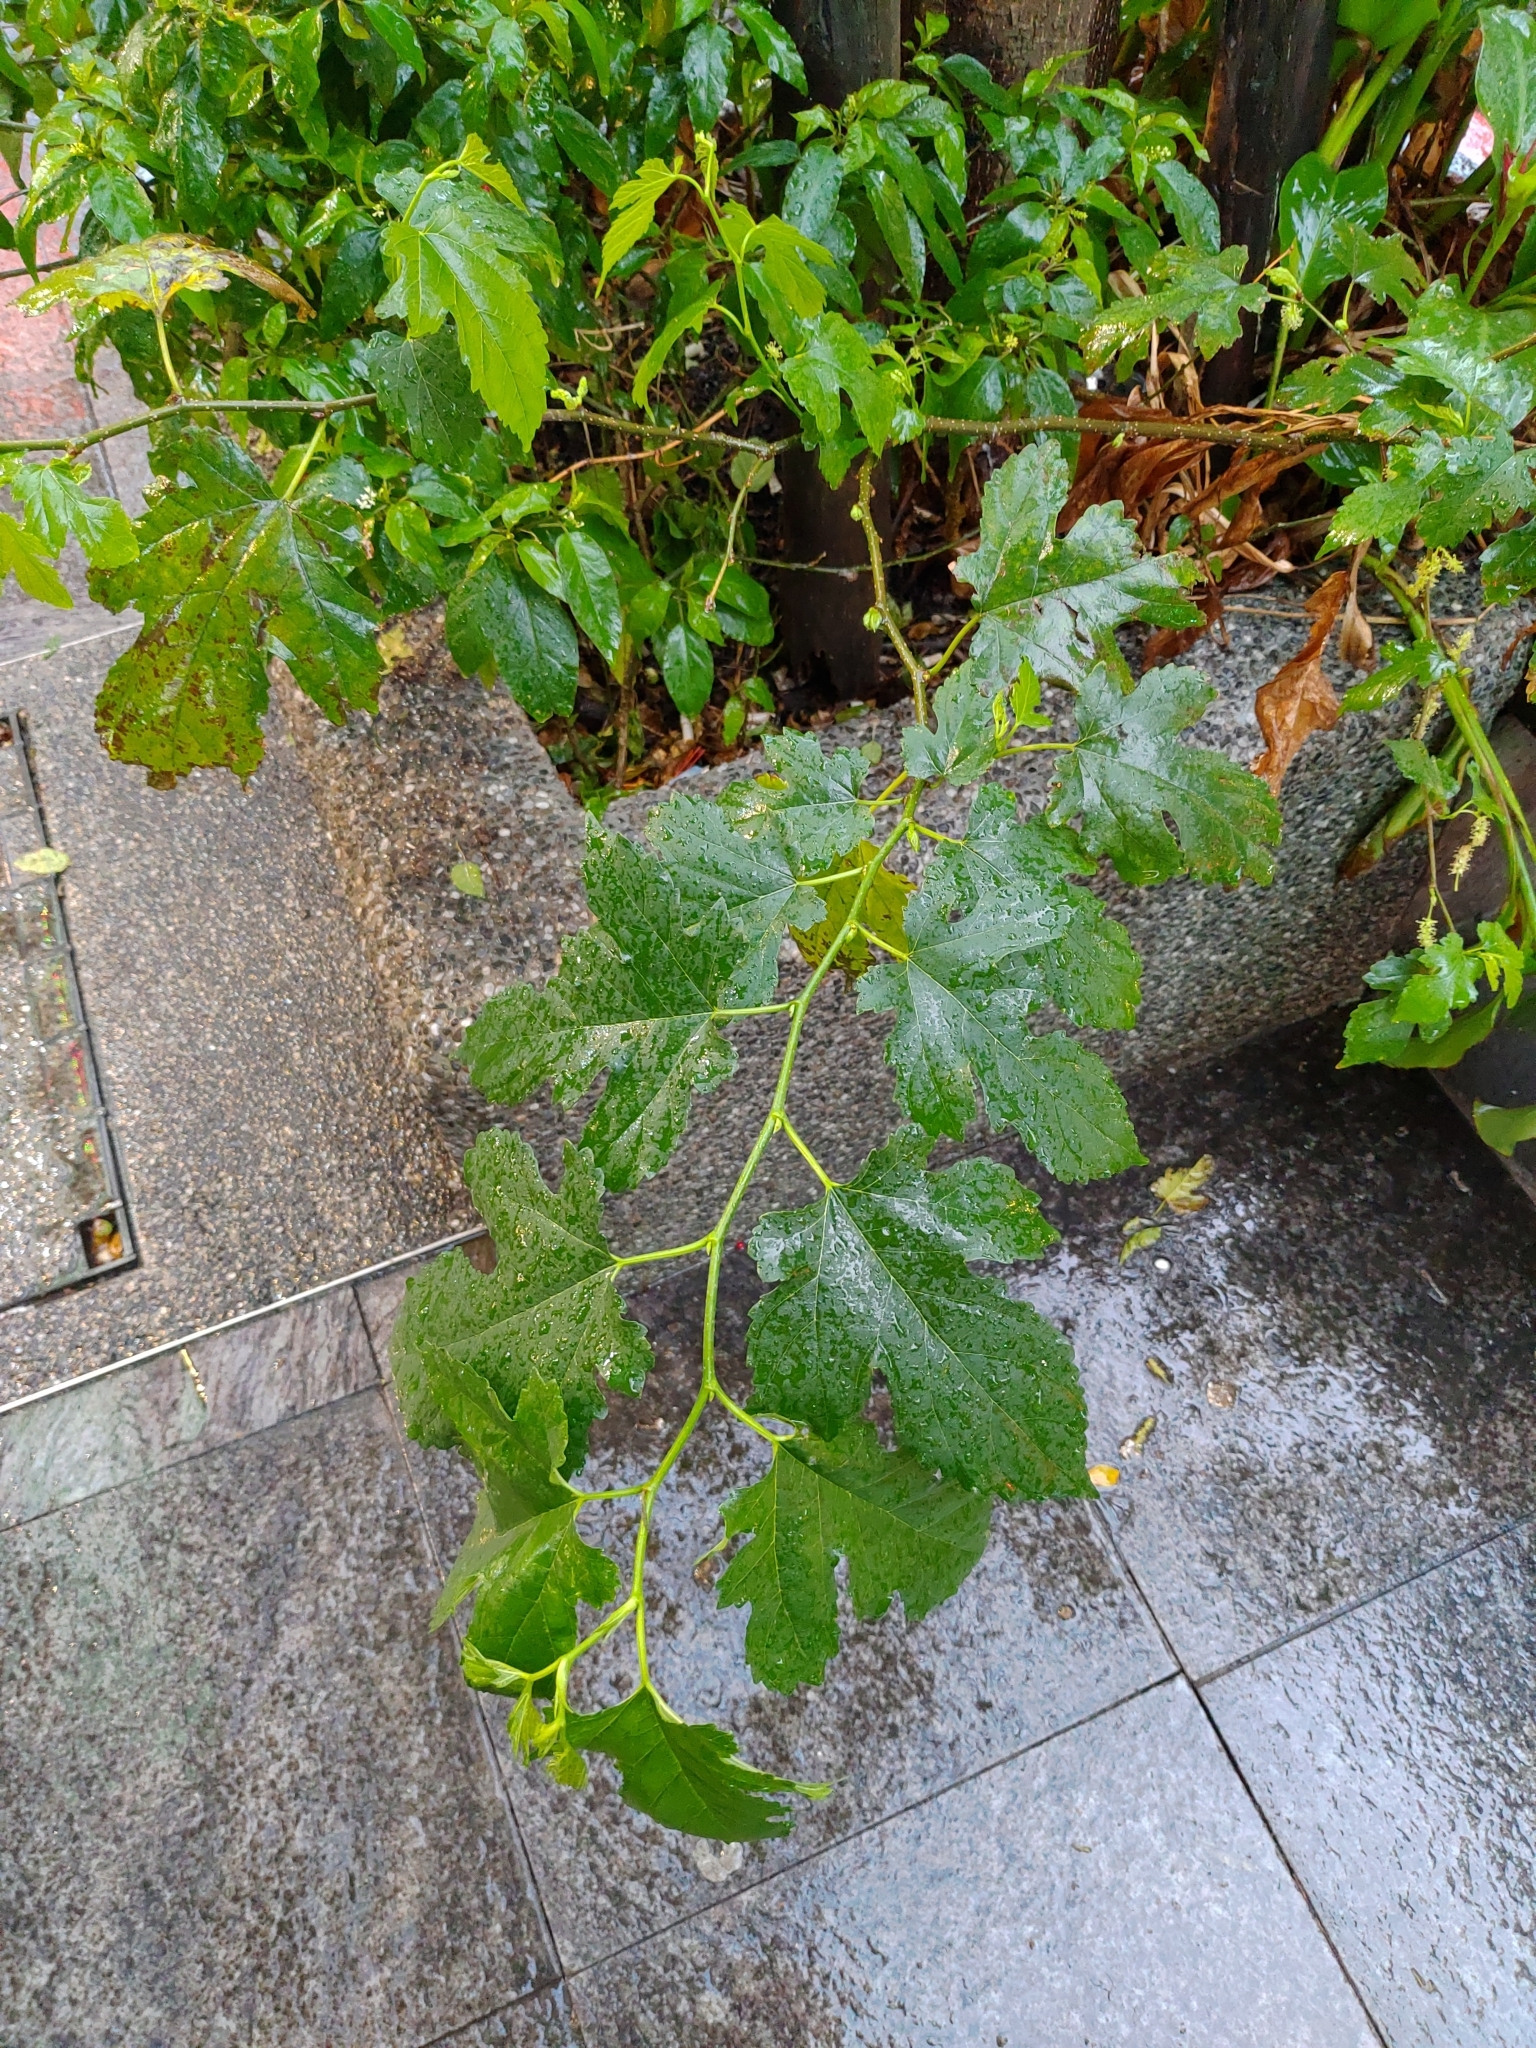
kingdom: Plantae
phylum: Tracheophyta
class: Magnoliopsida
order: Rosales
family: Moraceae
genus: Morus
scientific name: Morus indica
